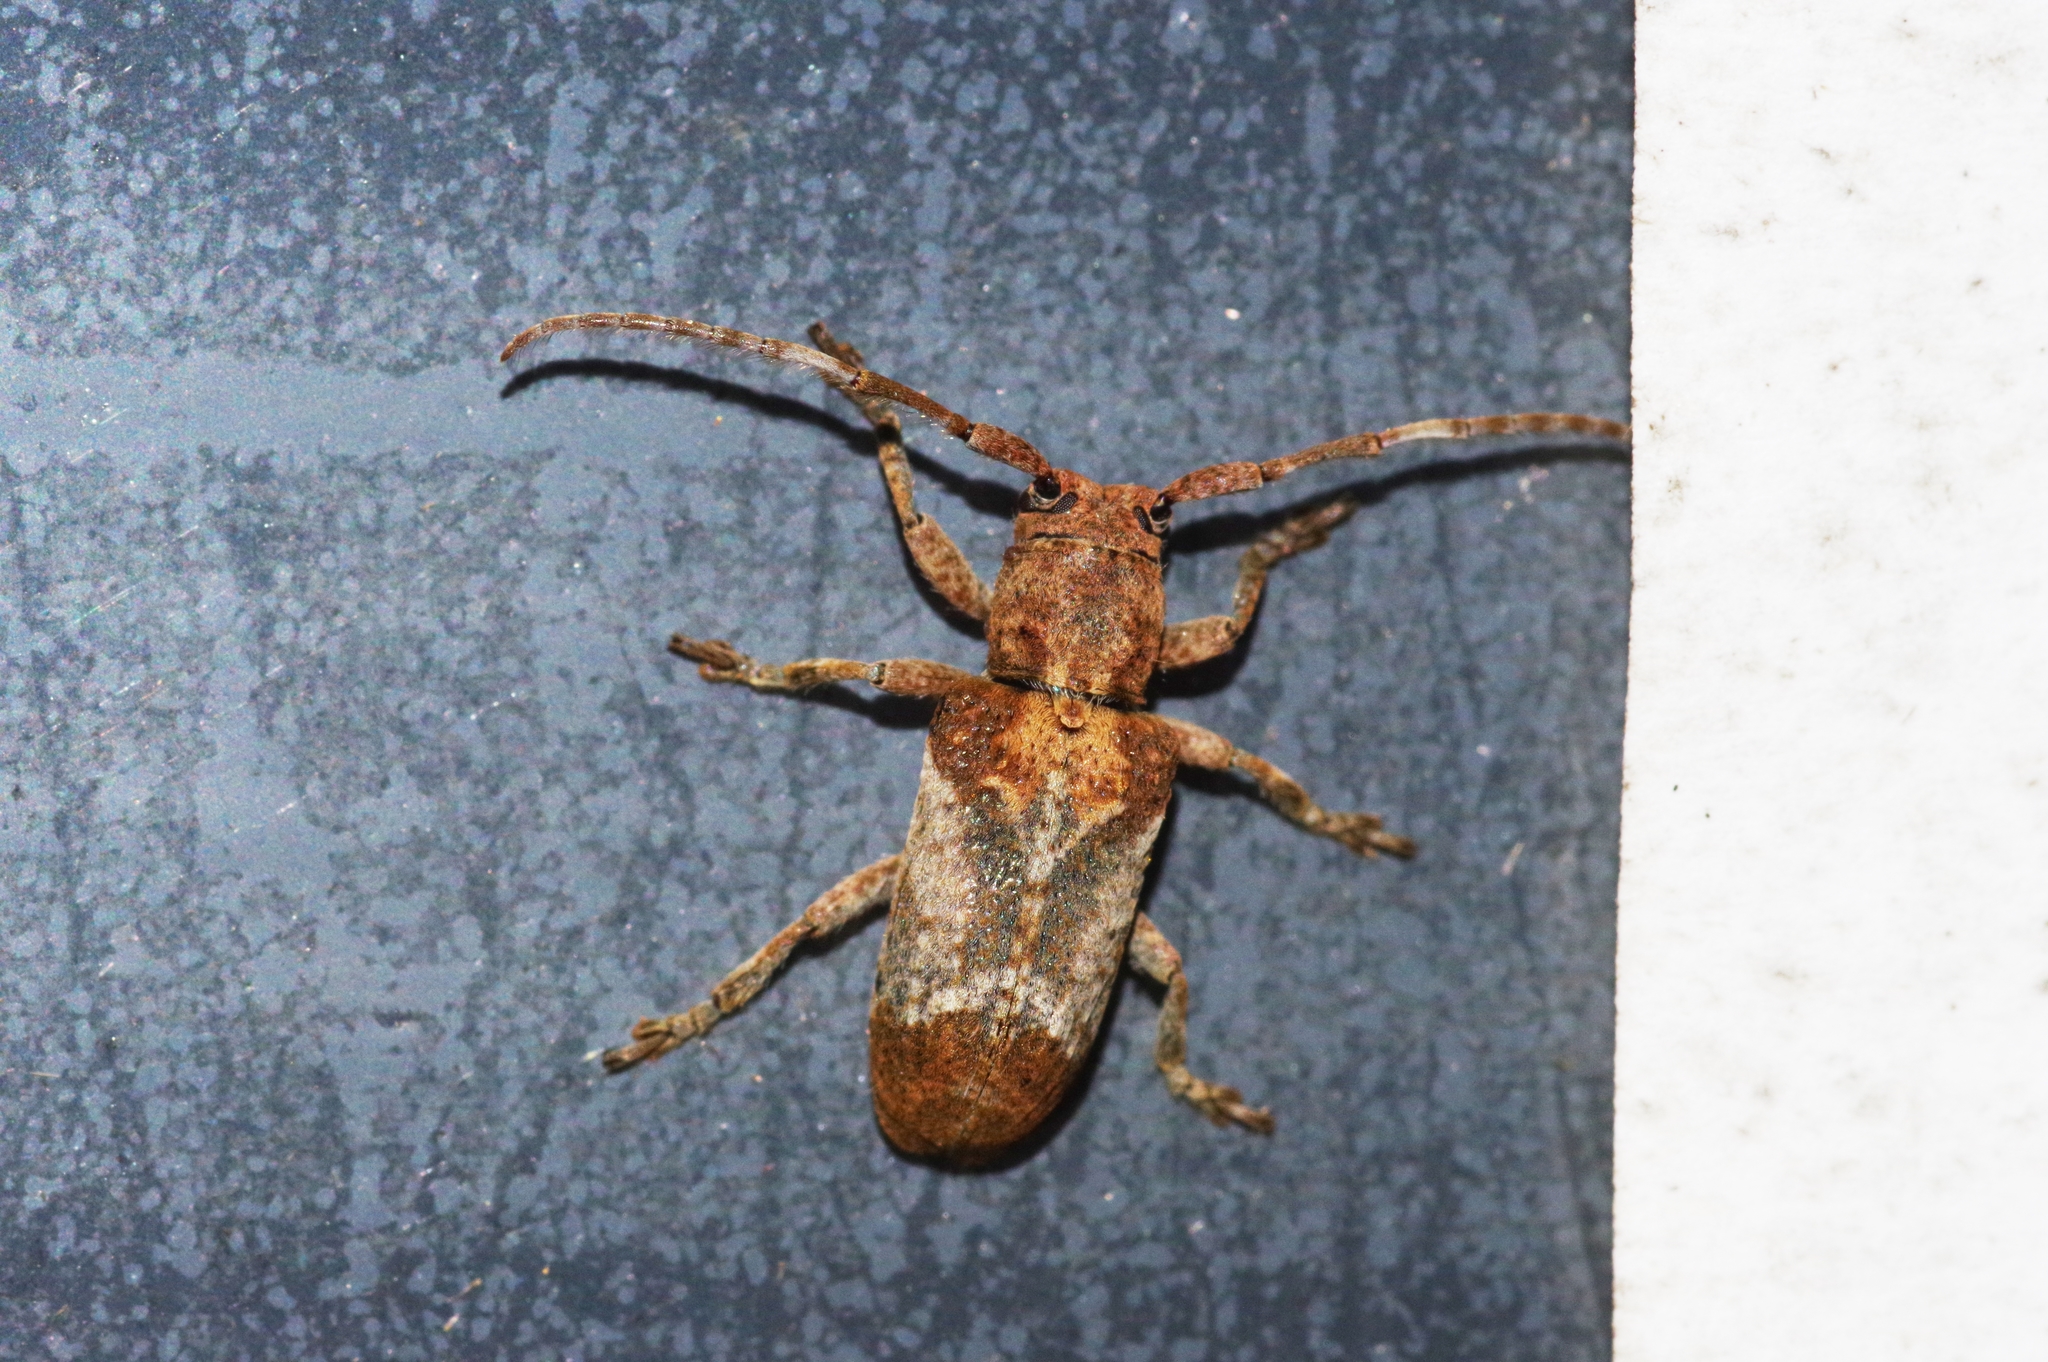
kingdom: Animalia
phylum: Arthropoda
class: Insecta
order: Coleoptera
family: Cerambycidae
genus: Pterolophia
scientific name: Pterolophia annulata
